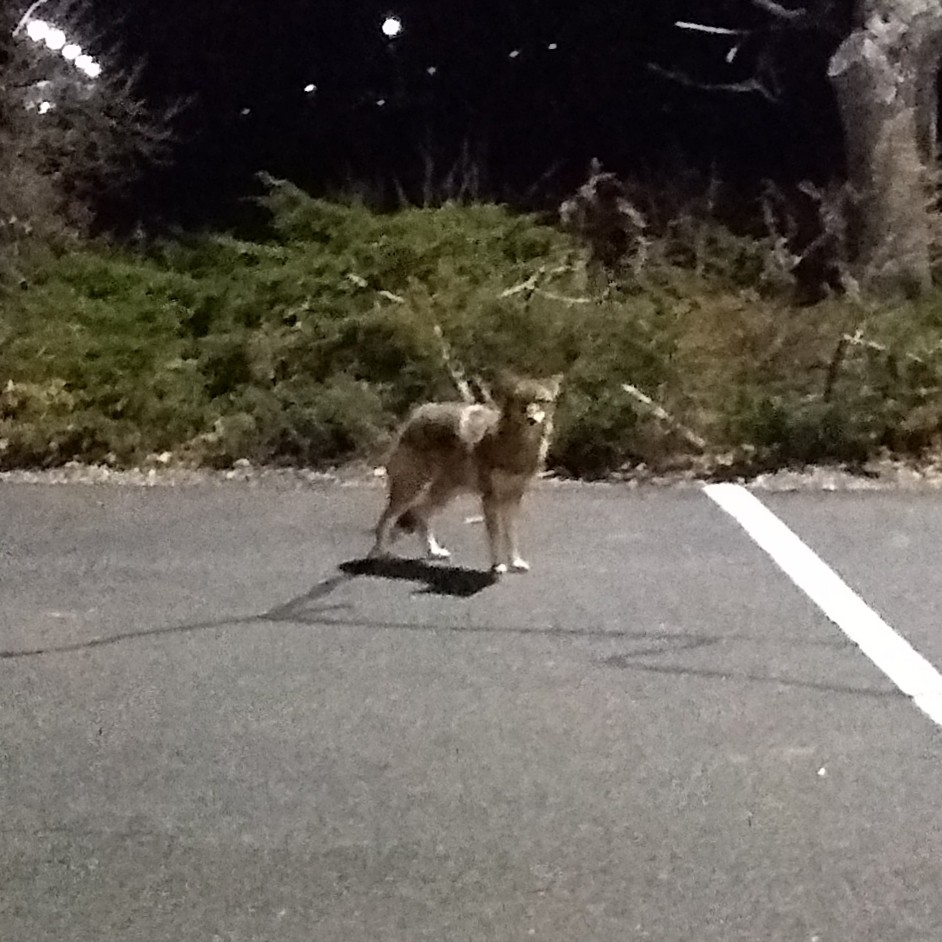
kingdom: Animalia
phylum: Chordata
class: Mammalia
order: Carnivora
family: Canidae
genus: Canis
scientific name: Canis latrans
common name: Coyote
